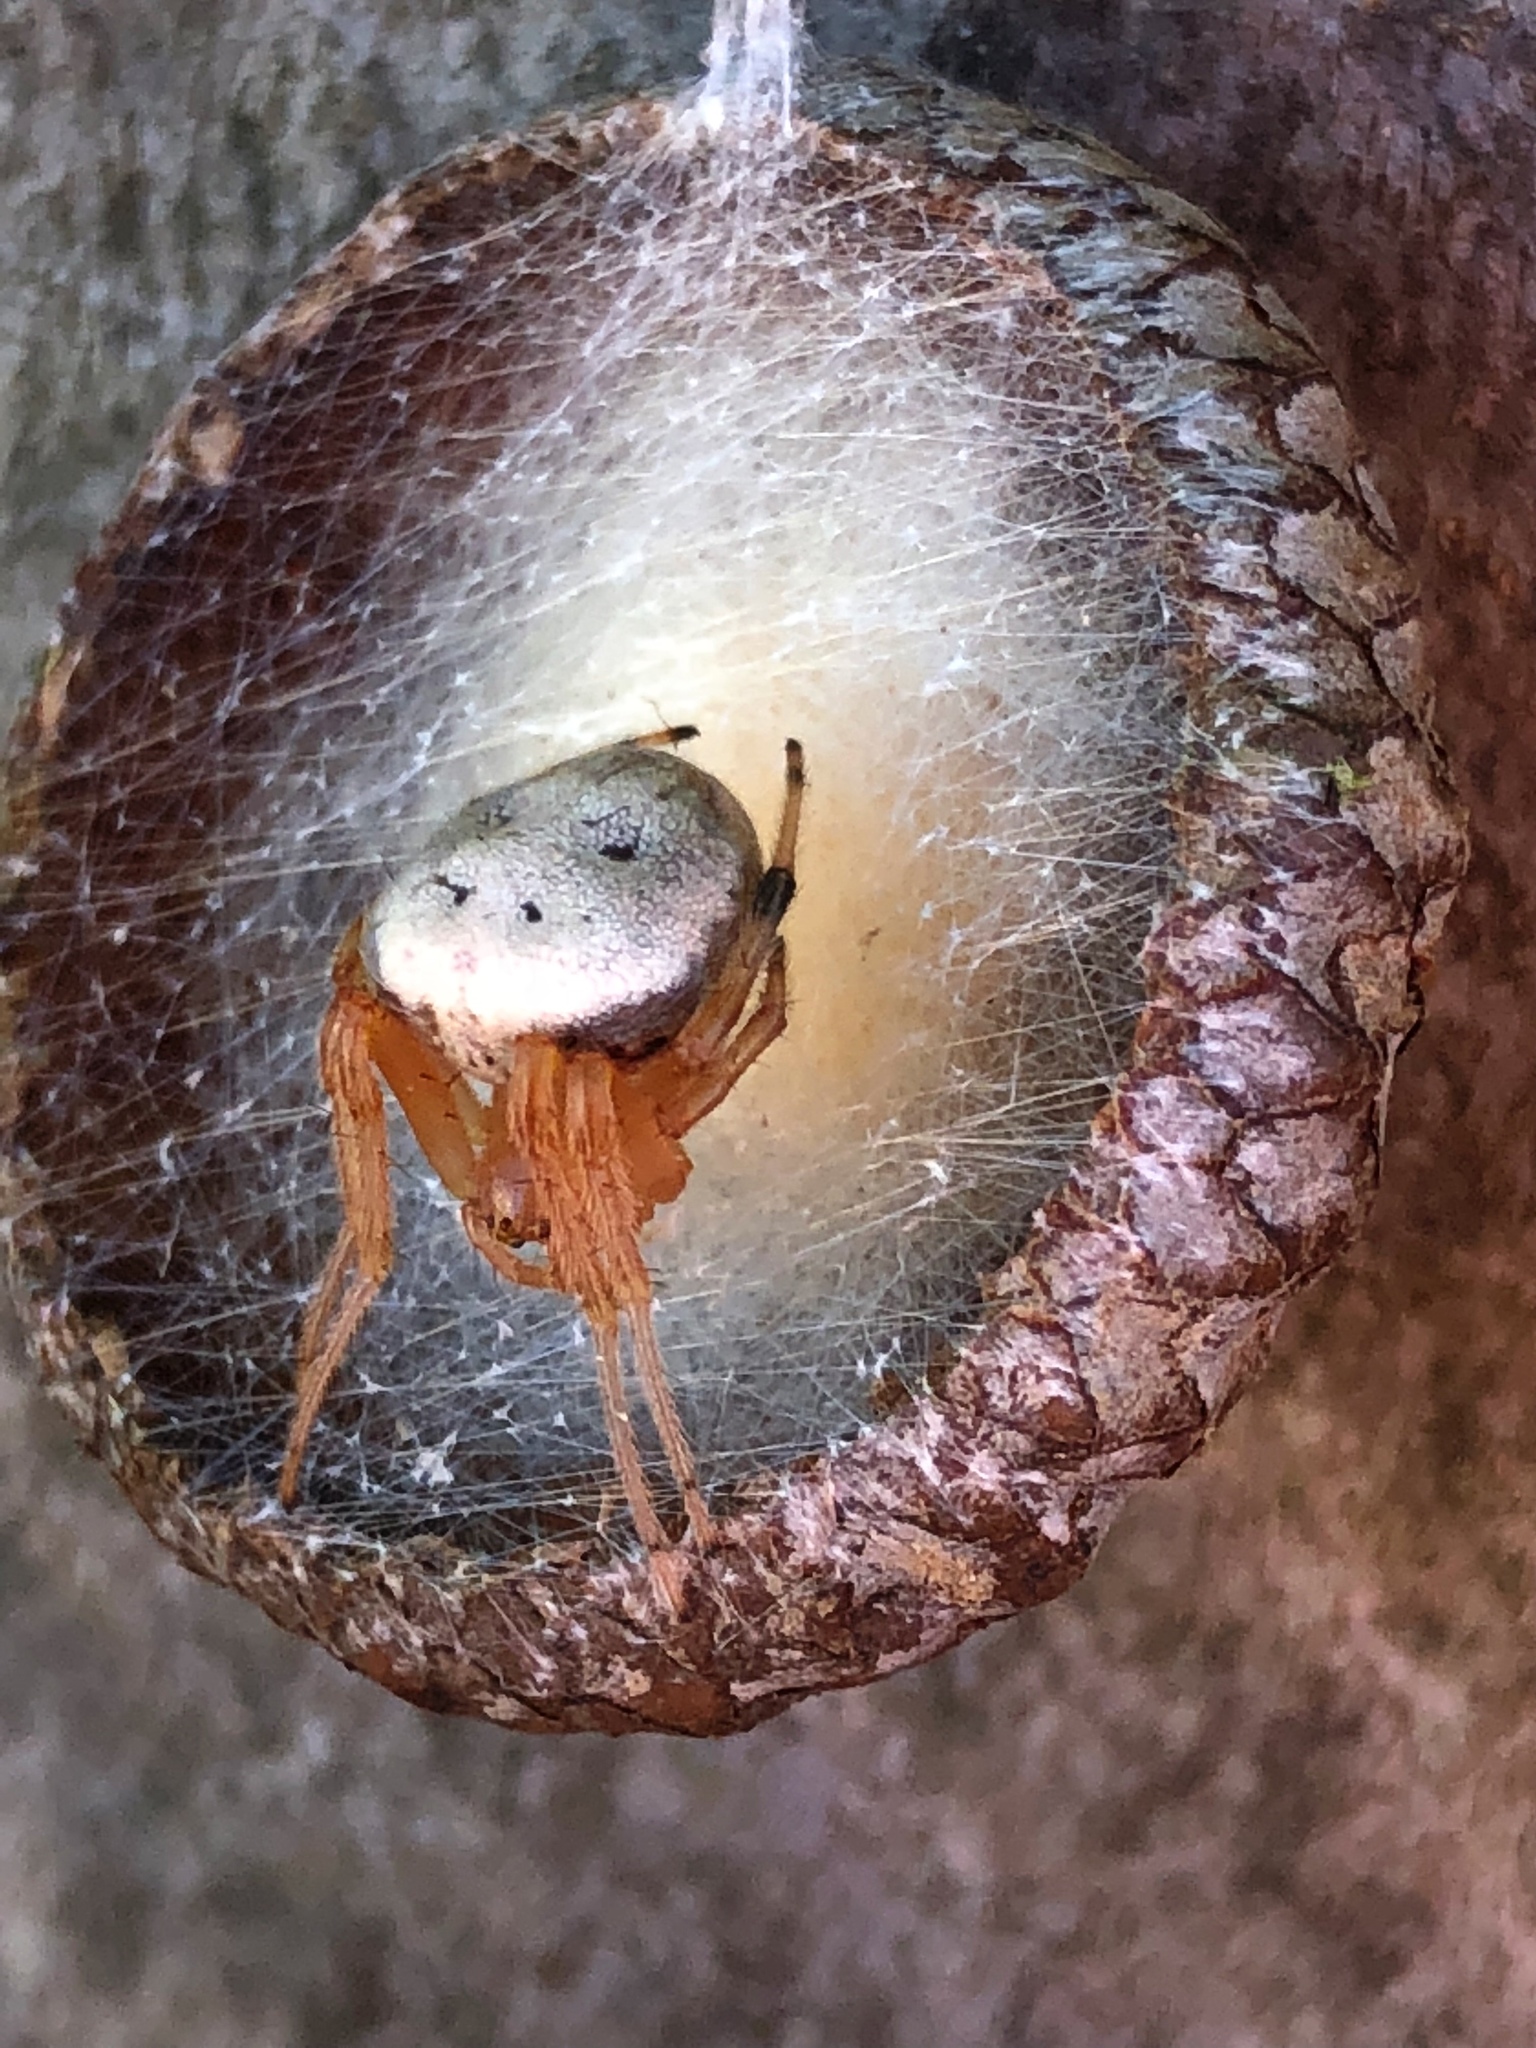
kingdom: Animalia
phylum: Arthropoda
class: Arachnida
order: Araneae
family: Araneidae
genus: Araneus
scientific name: Araneus thaddeus
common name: Lattice orbweaver
